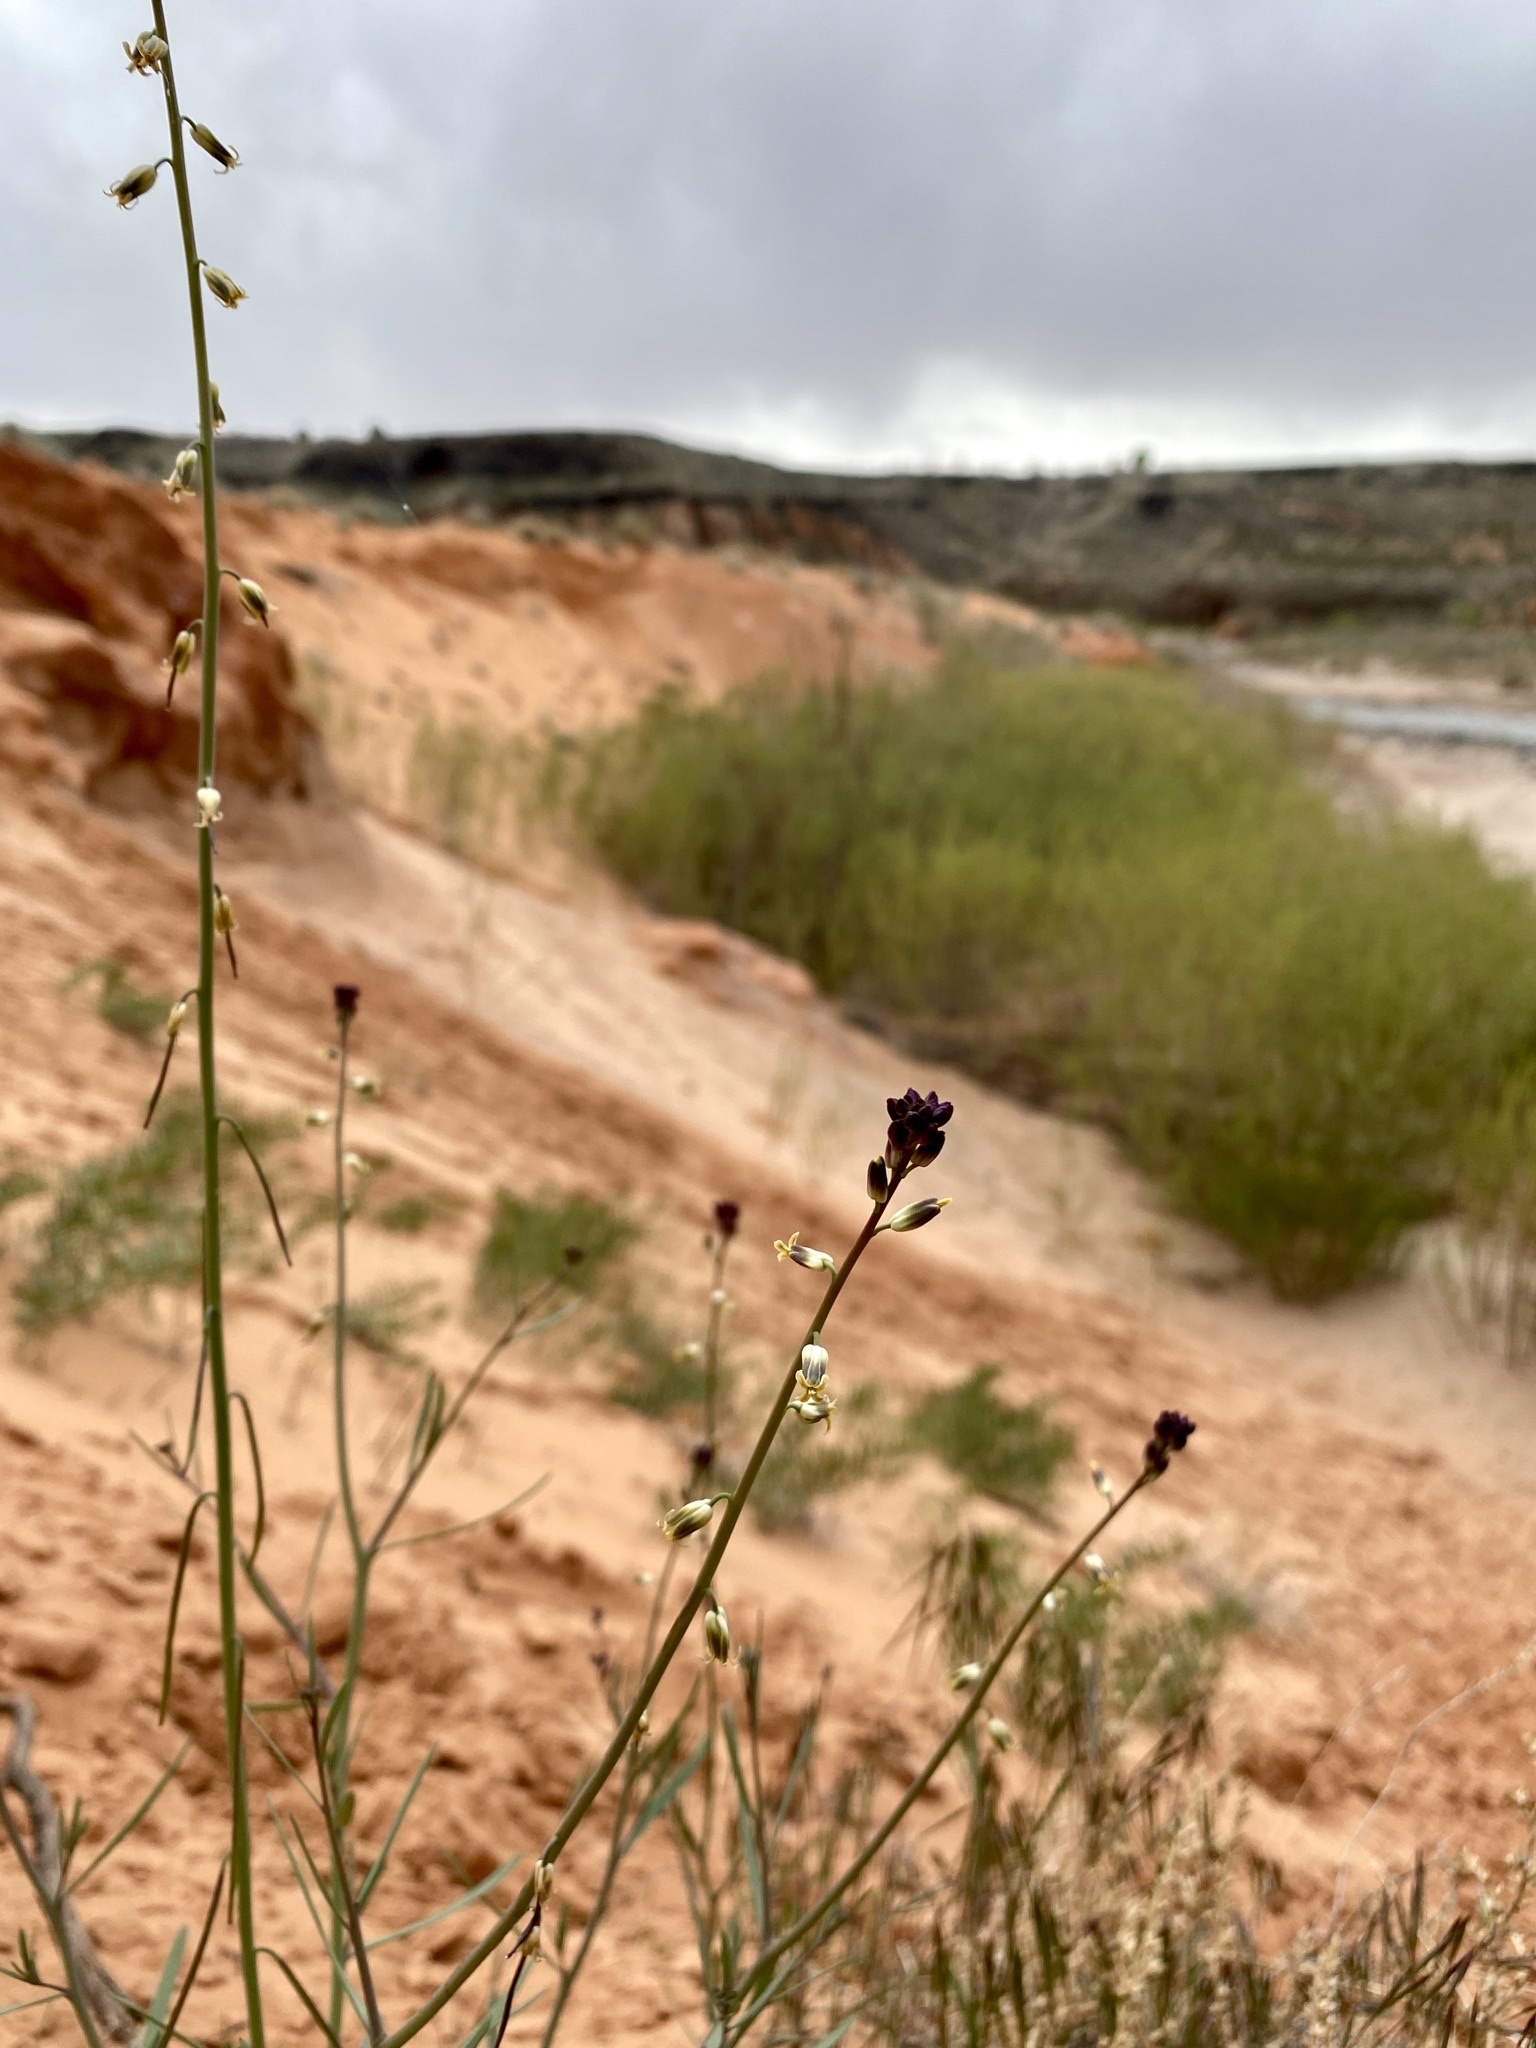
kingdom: Plantae
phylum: Tracheophyta
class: Magnoliopsida
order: Brassicales
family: Brassicaceae
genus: Streptanthus
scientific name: Streptanthus longirostris
